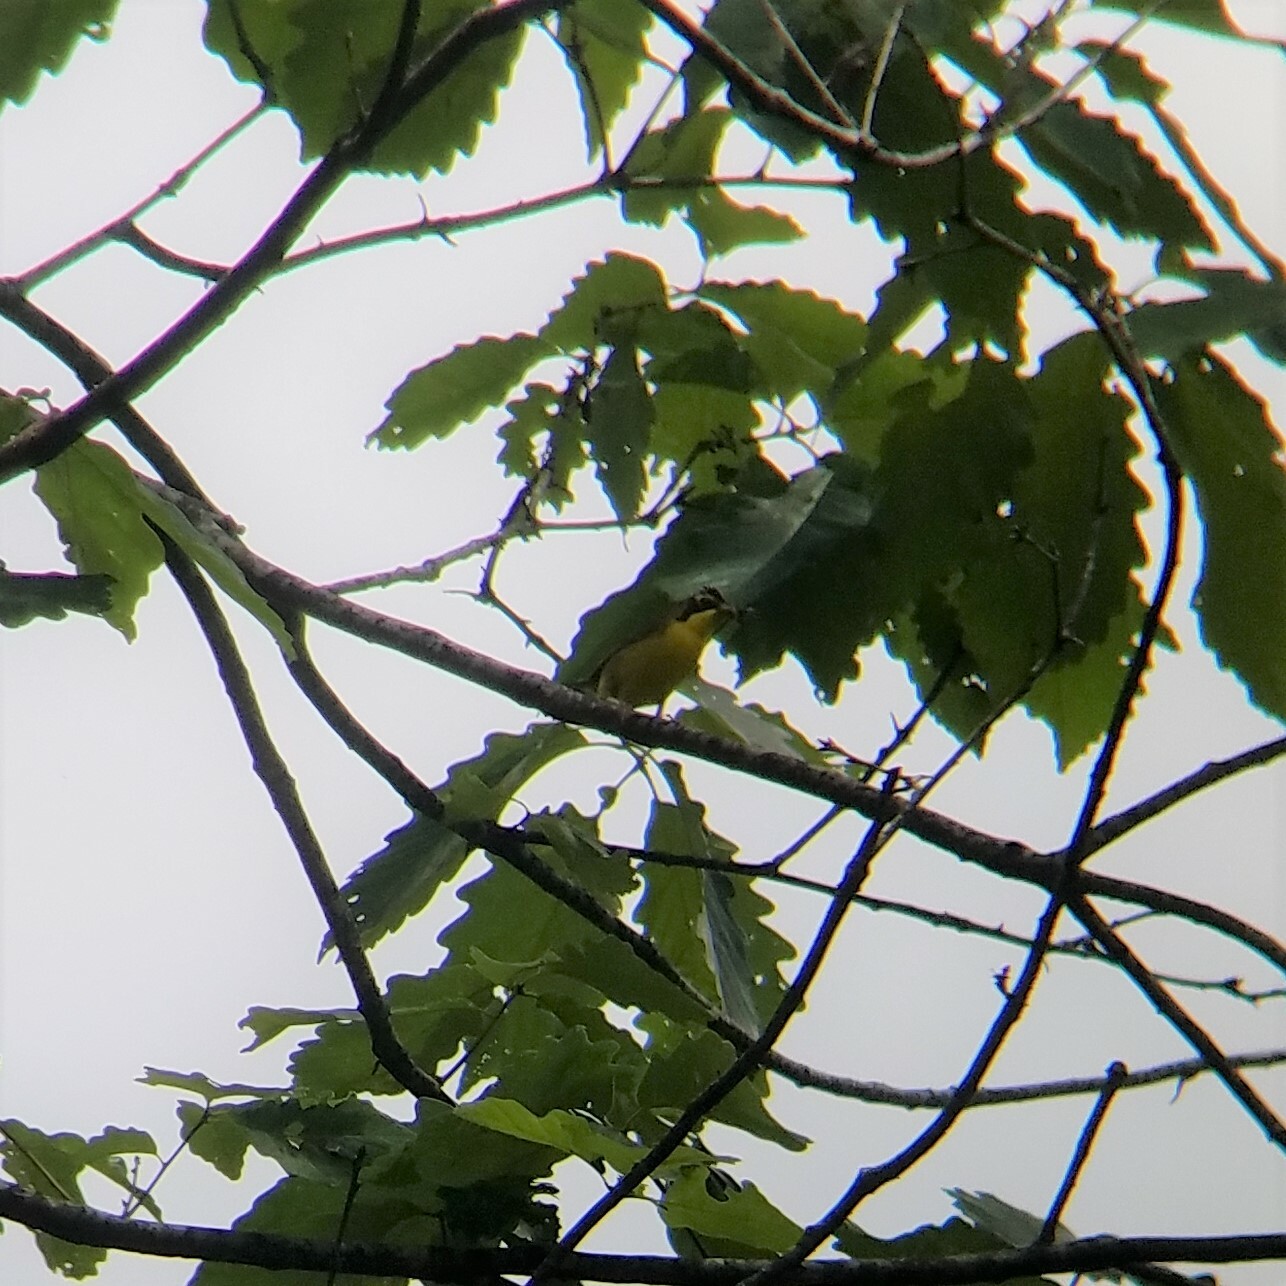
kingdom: Animalia
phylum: Chordata
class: Aves
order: Passeriformes
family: Parulidae
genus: Geothlypis
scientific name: Geothlypis formosa
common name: Kentucky warbler
